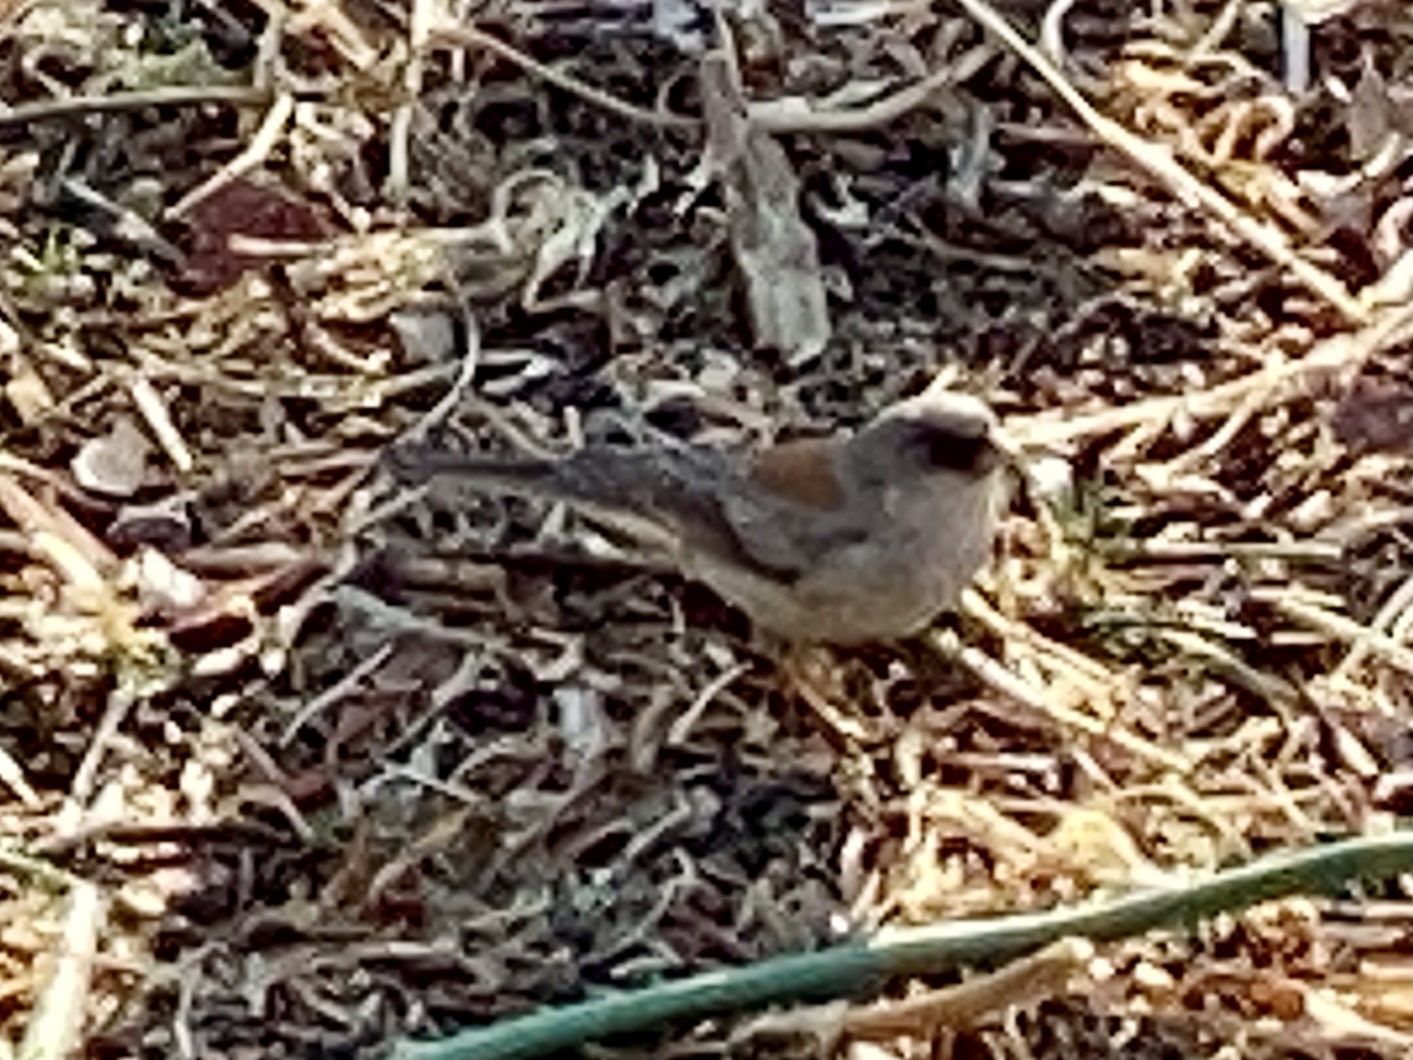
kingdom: Animalia
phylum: Chordata
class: Aves
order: Passeriformes
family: Passerellidae
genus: Junco
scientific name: Junco hyemalis
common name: Dark-eyed junco
